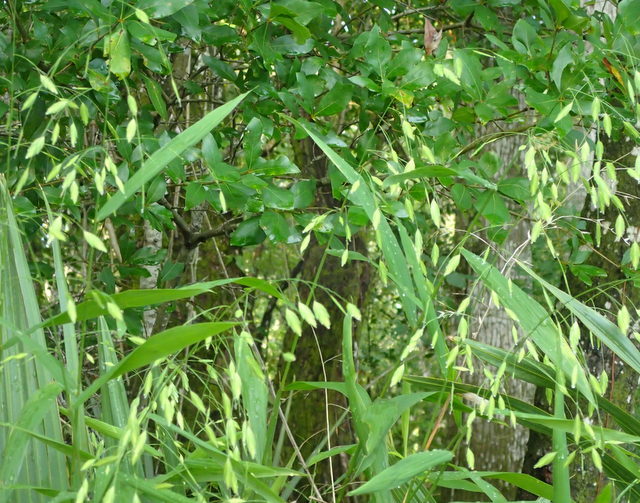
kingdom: Plantae
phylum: Tracheophyta
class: Liliopsida
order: Poales
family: Poaceae
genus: Chasmanthium
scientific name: Chasmanthium latifolium
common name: Broad-leaved chasmanthium
